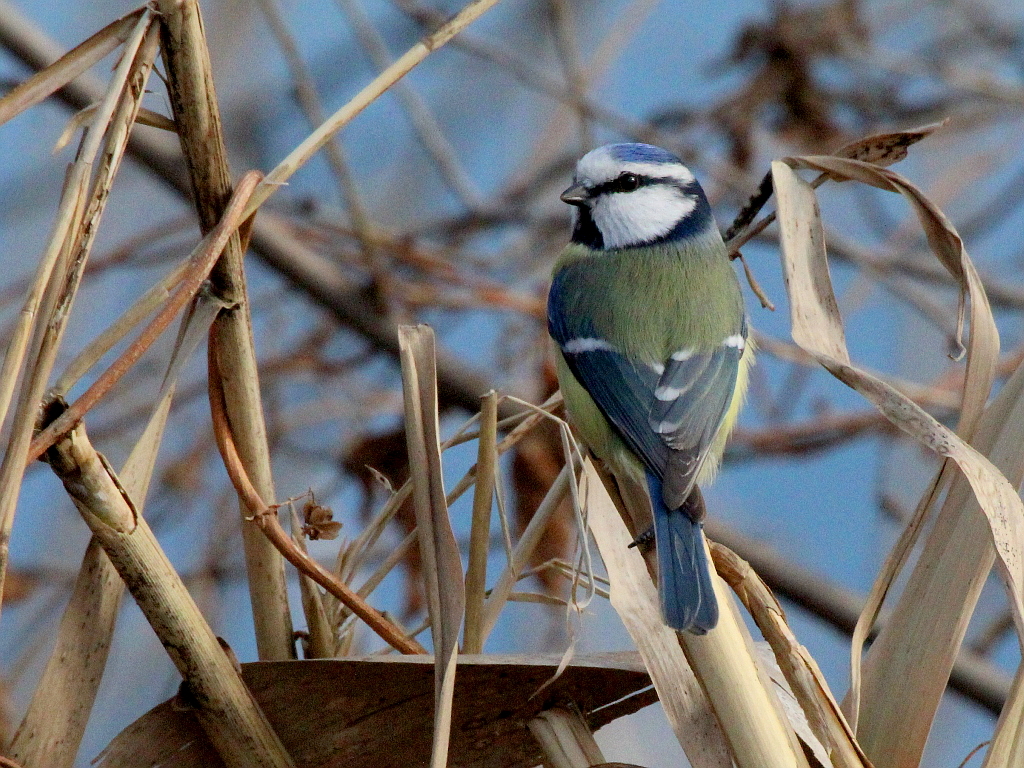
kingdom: Animalia
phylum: Chordata
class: Aves
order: Passeriformes
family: Paridae
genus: Cyanistes
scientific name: Cyanistes caeruleus
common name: Eurasian blue tit
